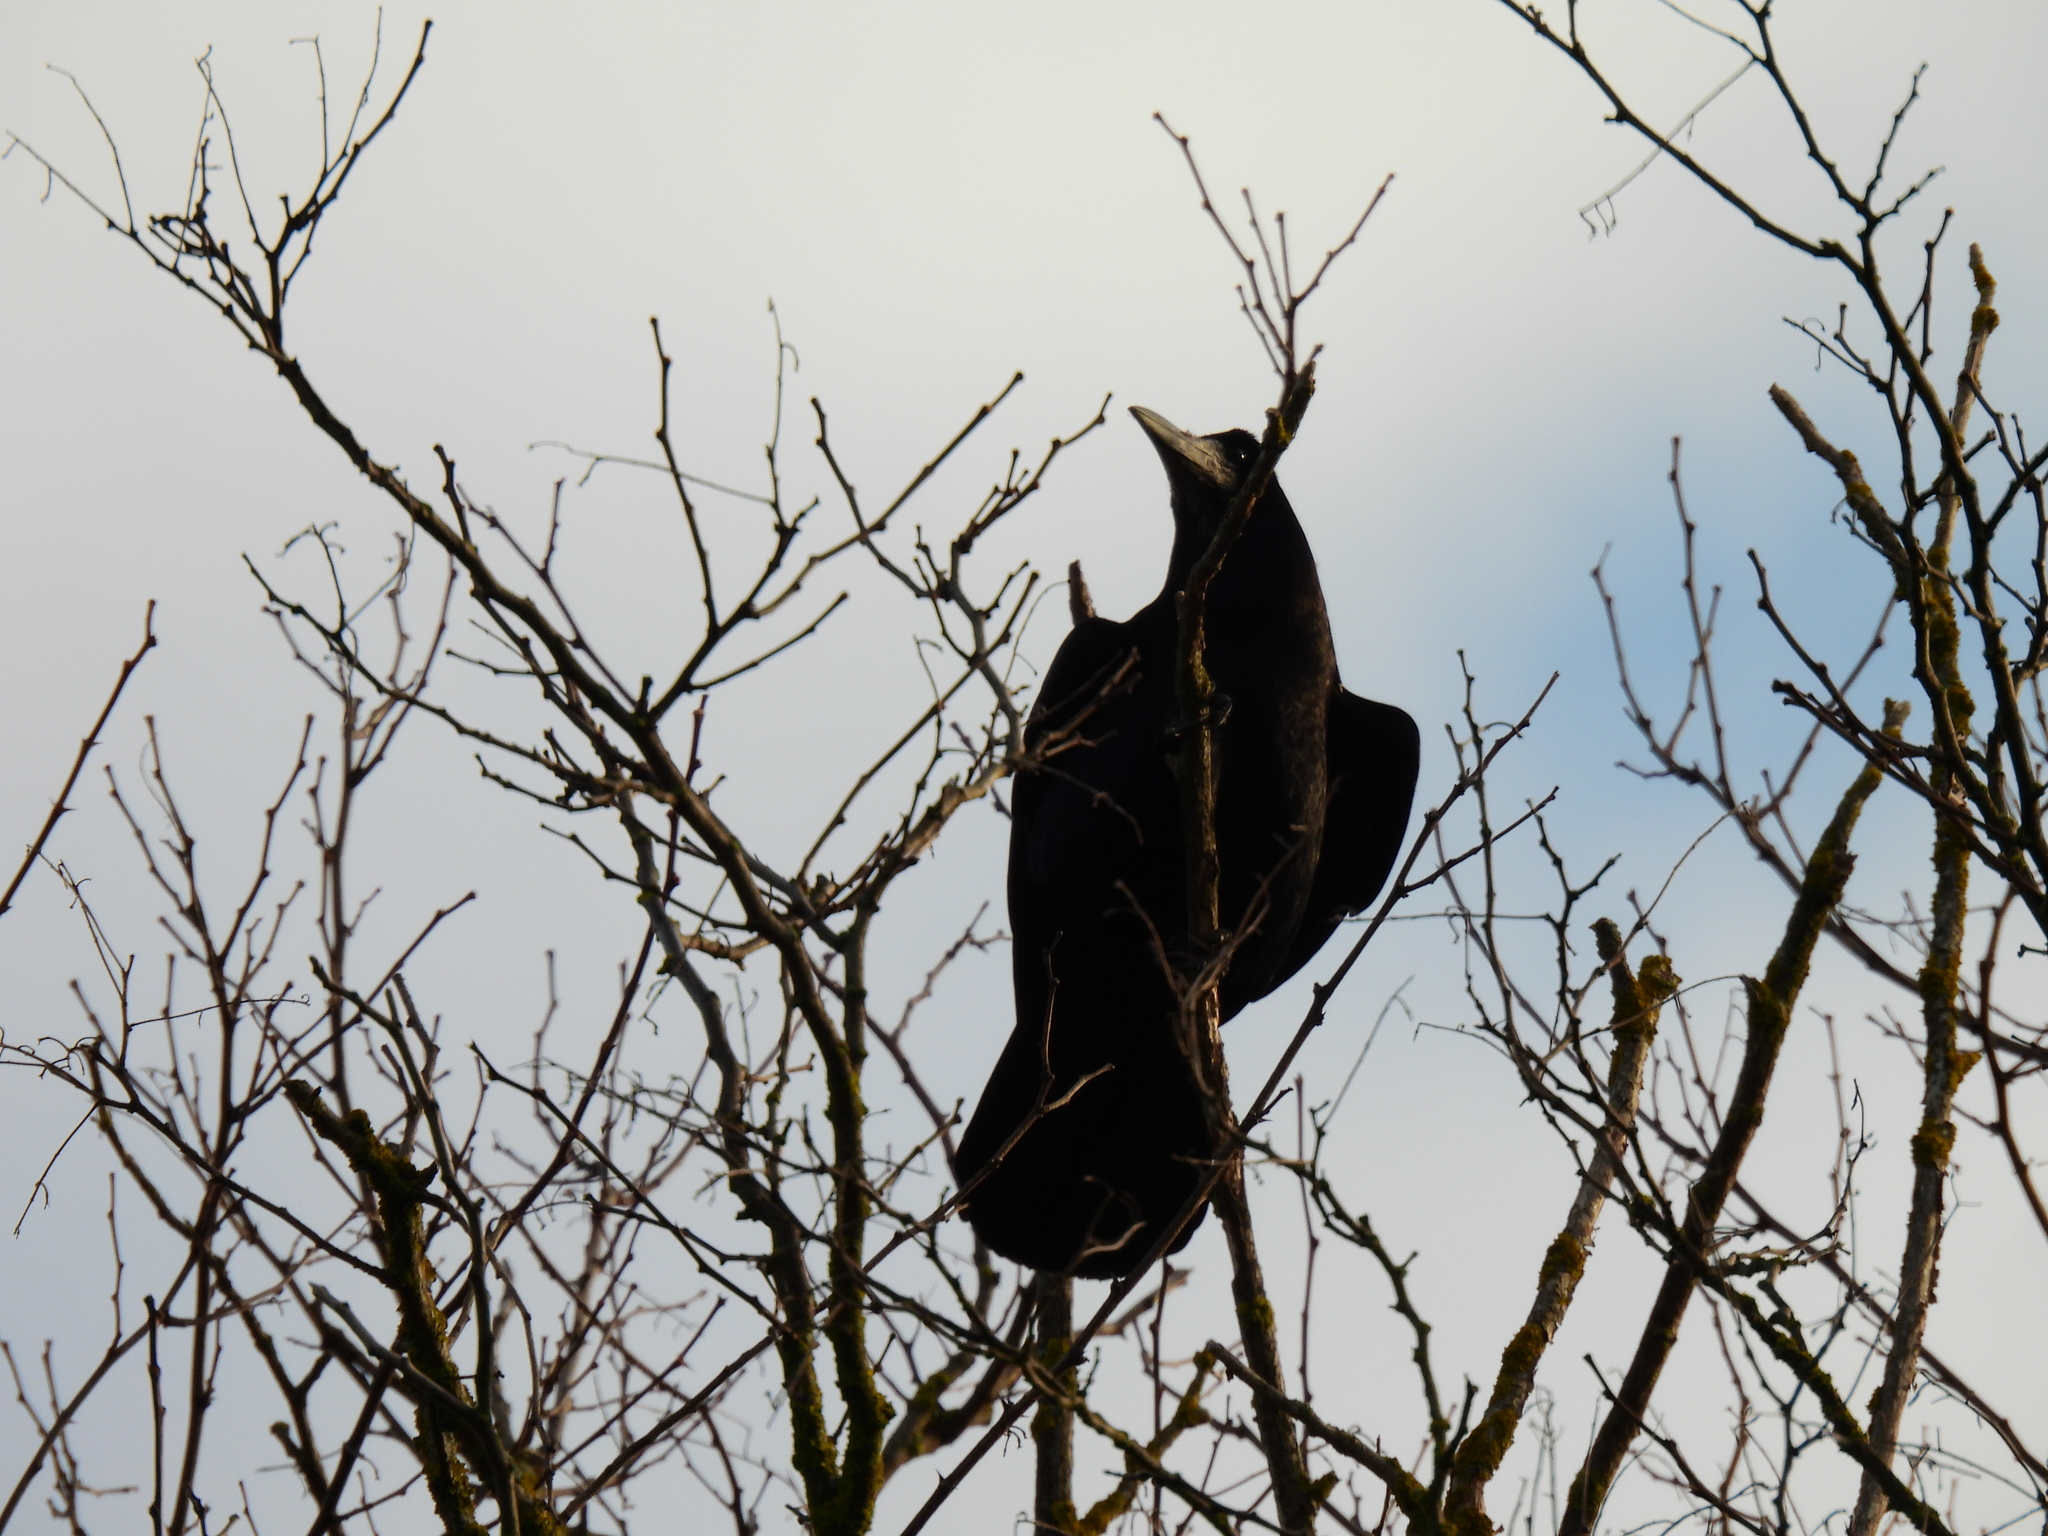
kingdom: Animalia
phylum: Chordata
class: Aves
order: Passeriformes
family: Corvidae
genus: Corvus
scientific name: Corvus frugilegus
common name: Rook
